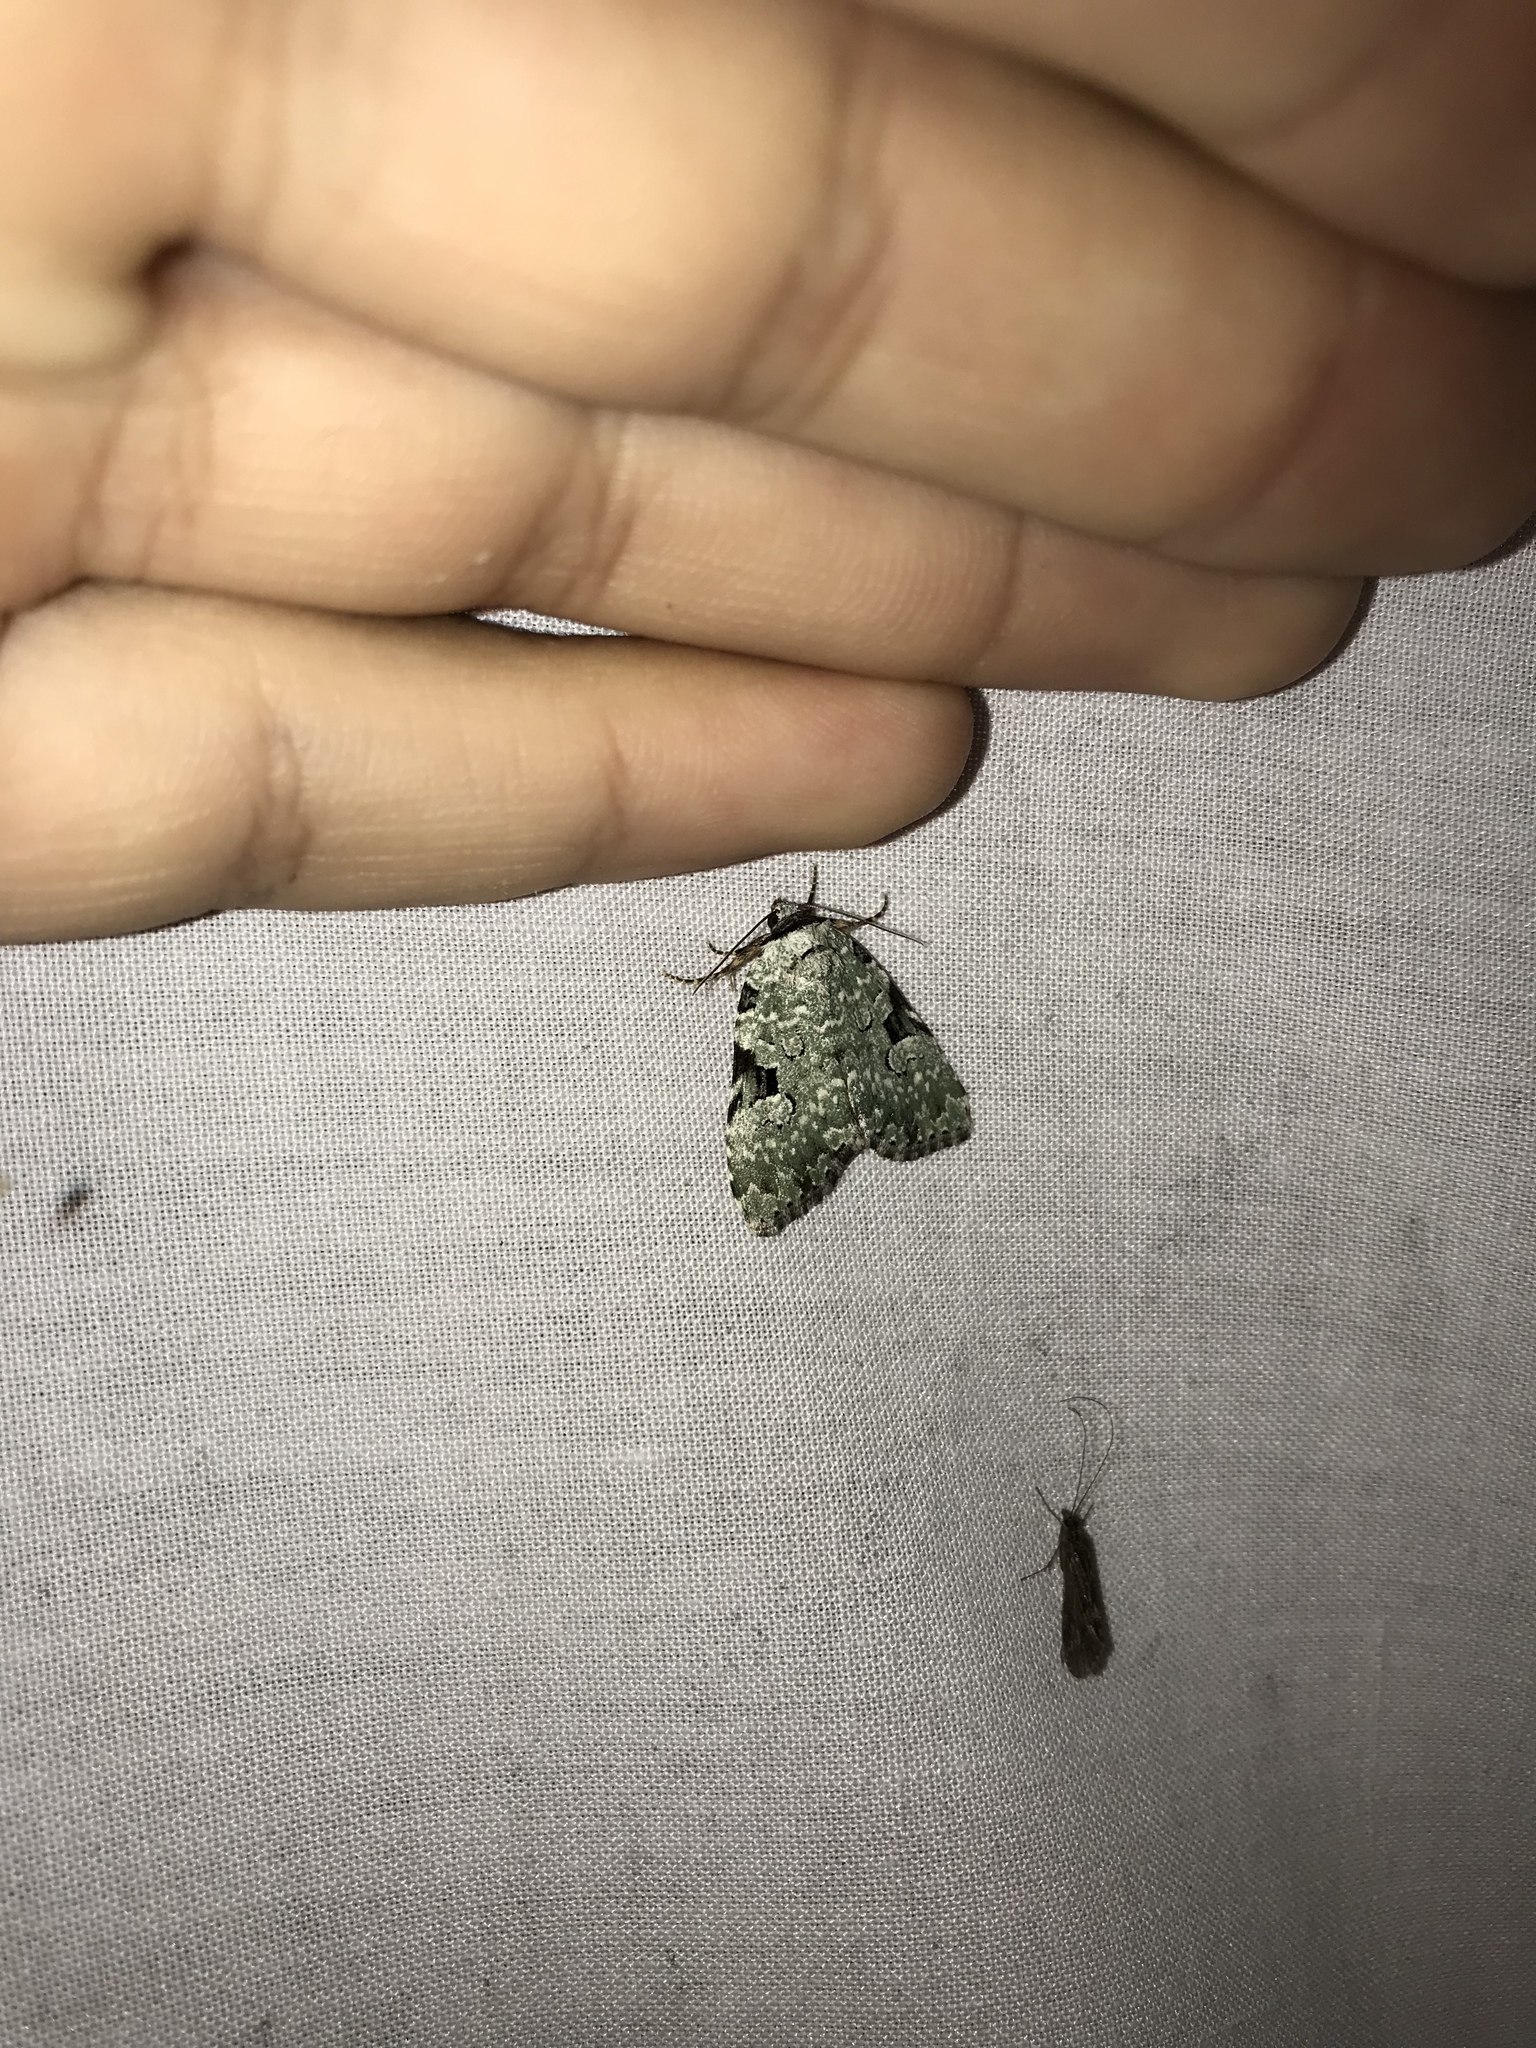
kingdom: Animalia
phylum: Arthropoda
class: Insecta
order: Lepidoptera
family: Noctuidae
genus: Leuconycta
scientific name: Leuconycta diphteroides
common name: Green leuconycta moth
